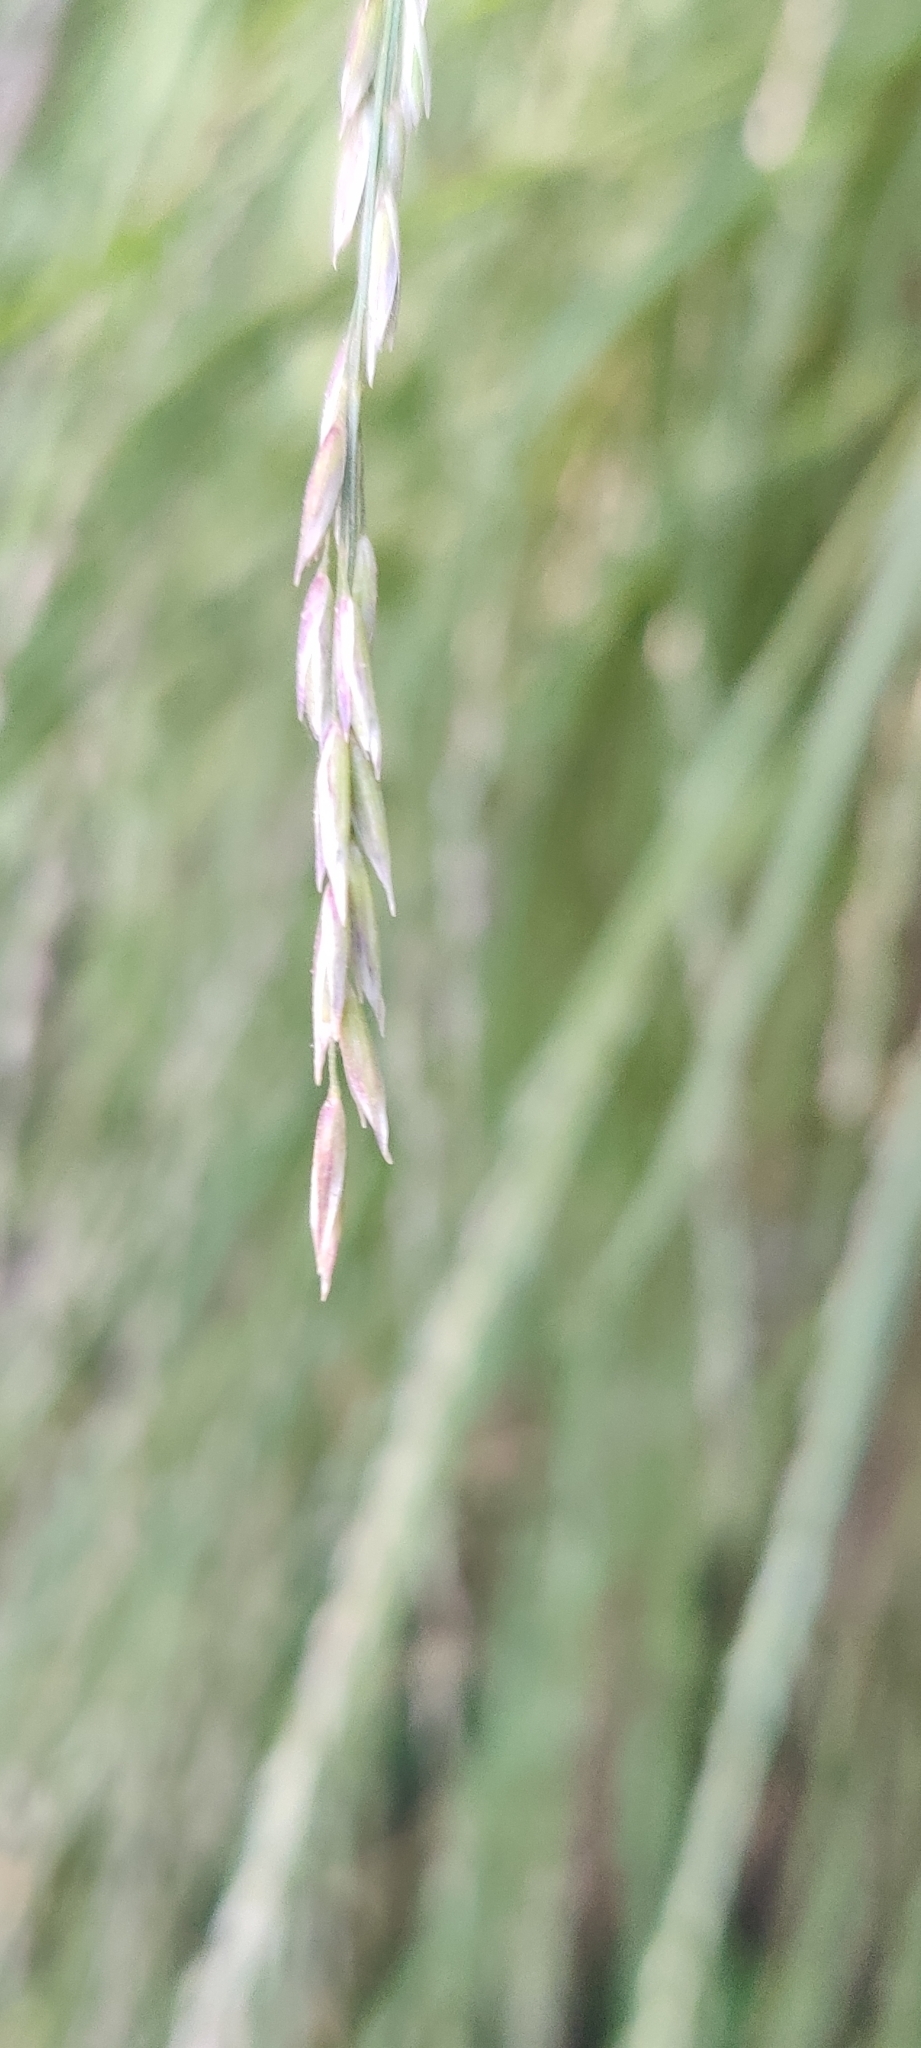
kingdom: Plantae
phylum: Tracheophyta
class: Liliopsida
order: Poales
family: Poaceae
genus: Melica
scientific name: Melica torreyana
